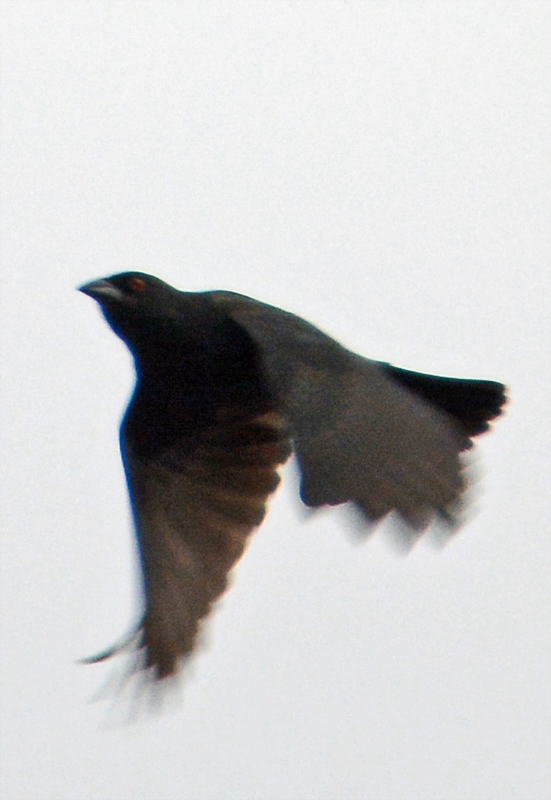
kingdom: Animalia
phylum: Chordata
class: Aves
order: Passeriformes
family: Icteridae
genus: Molothrus
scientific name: Molothrus aeneus
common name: Bronzed cowbird
